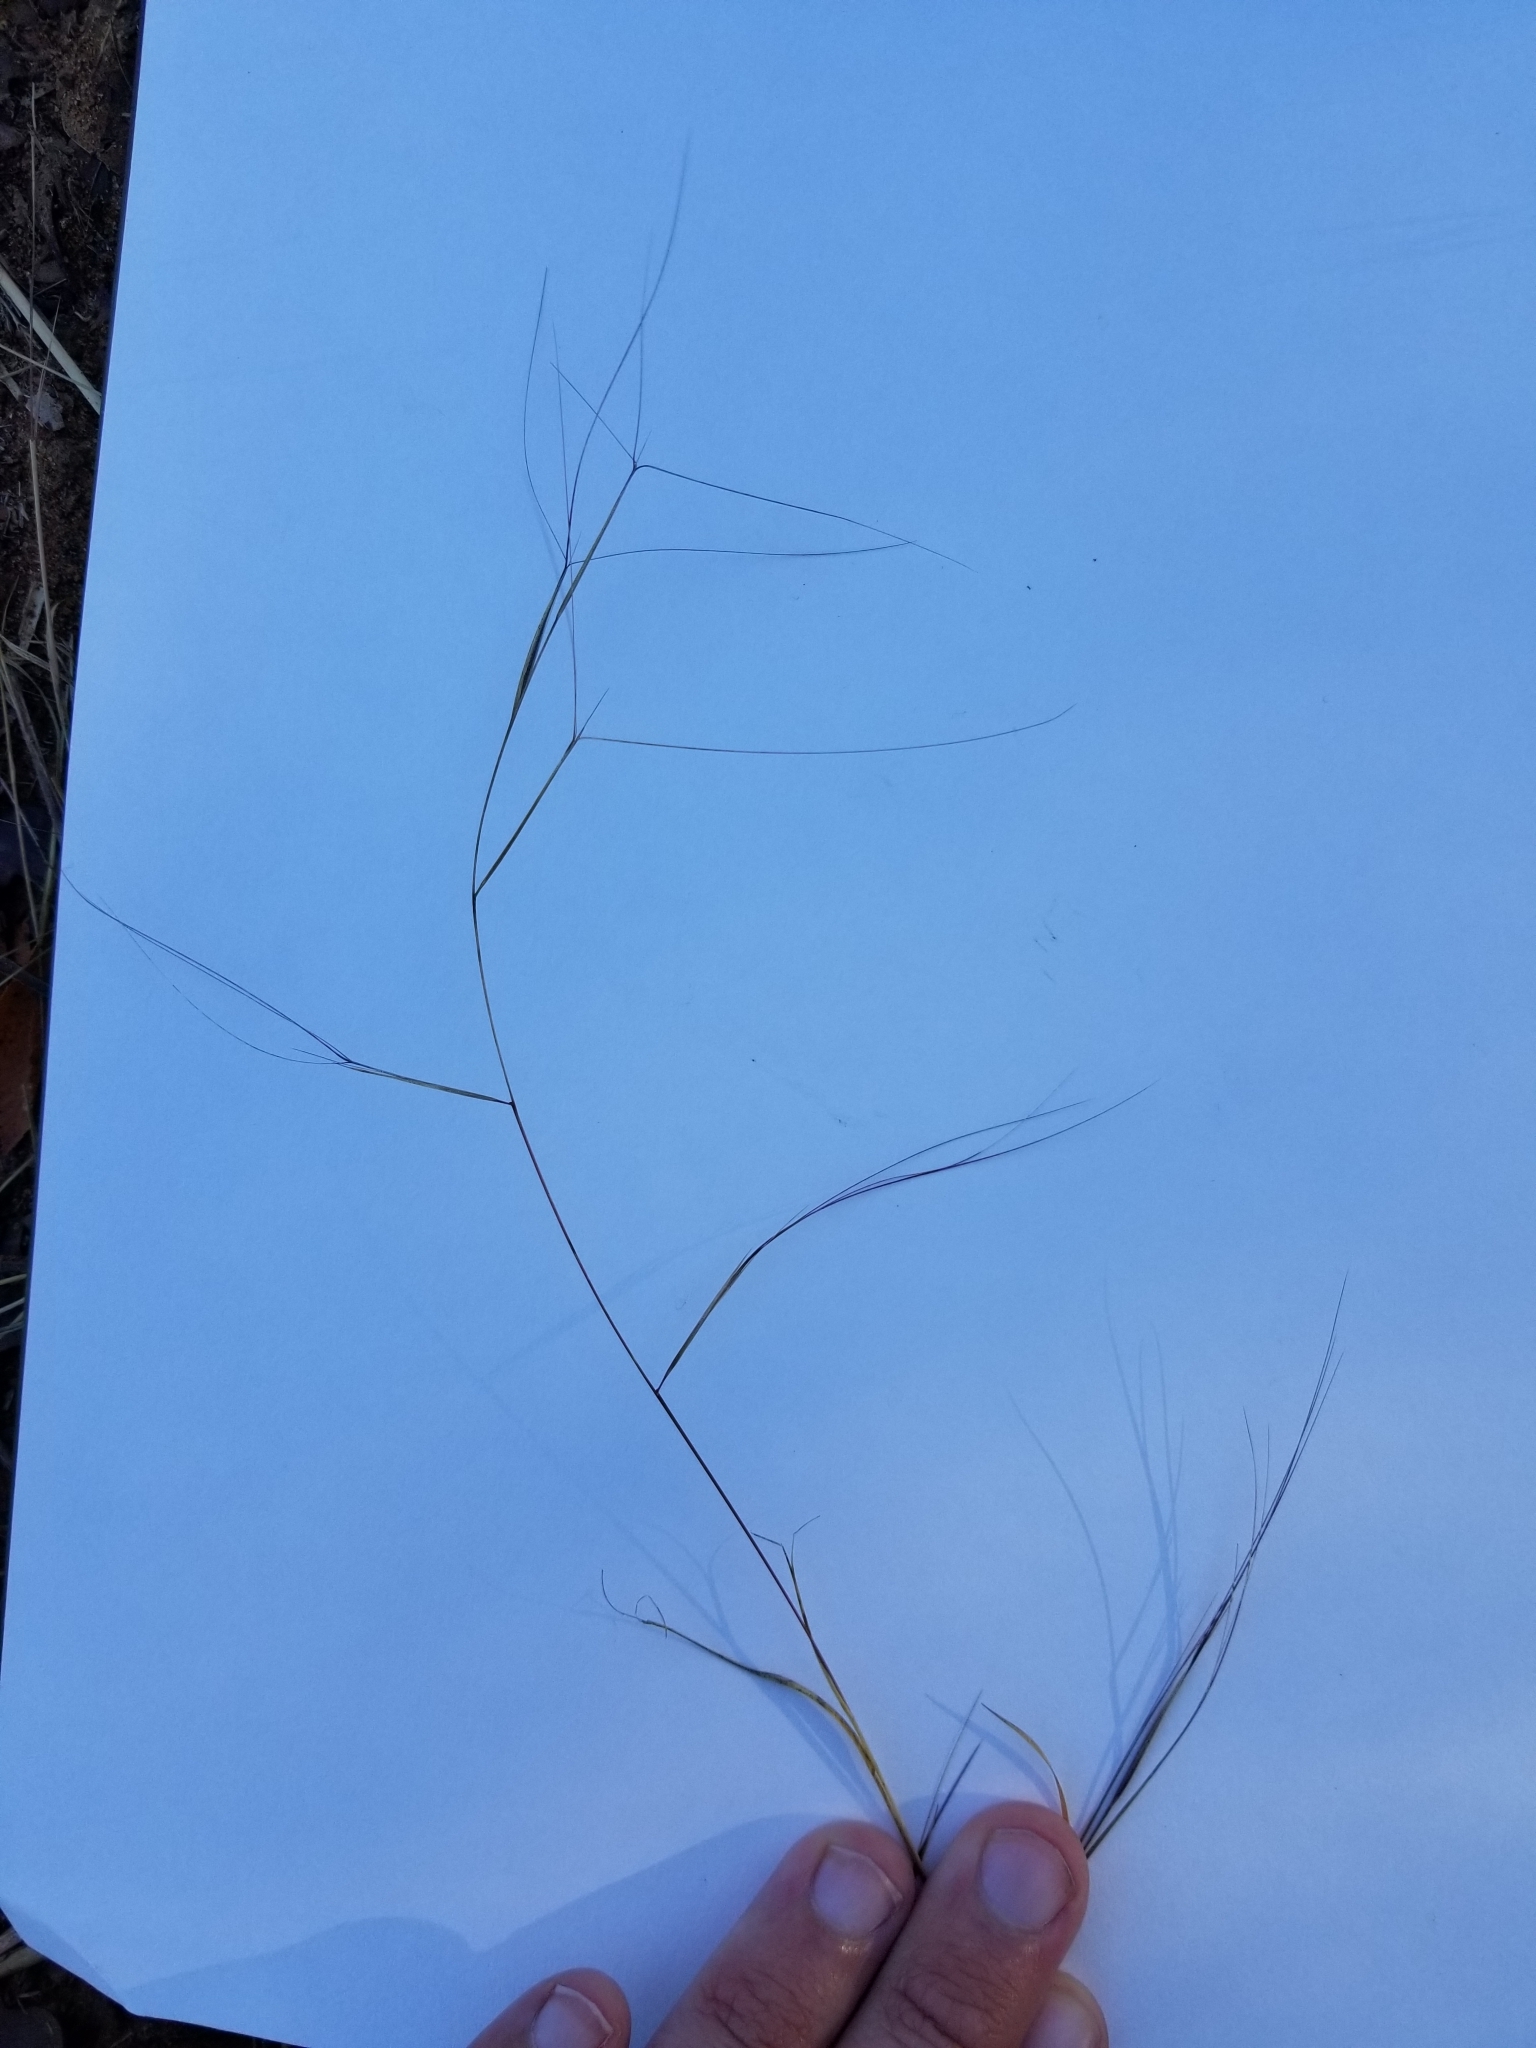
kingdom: Plantae
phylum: Tracheophyta
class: Liliopsida
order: Poales
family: Poaceae
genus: Aristida
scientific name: Aristida oligantha
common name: Few-flowered aristida
